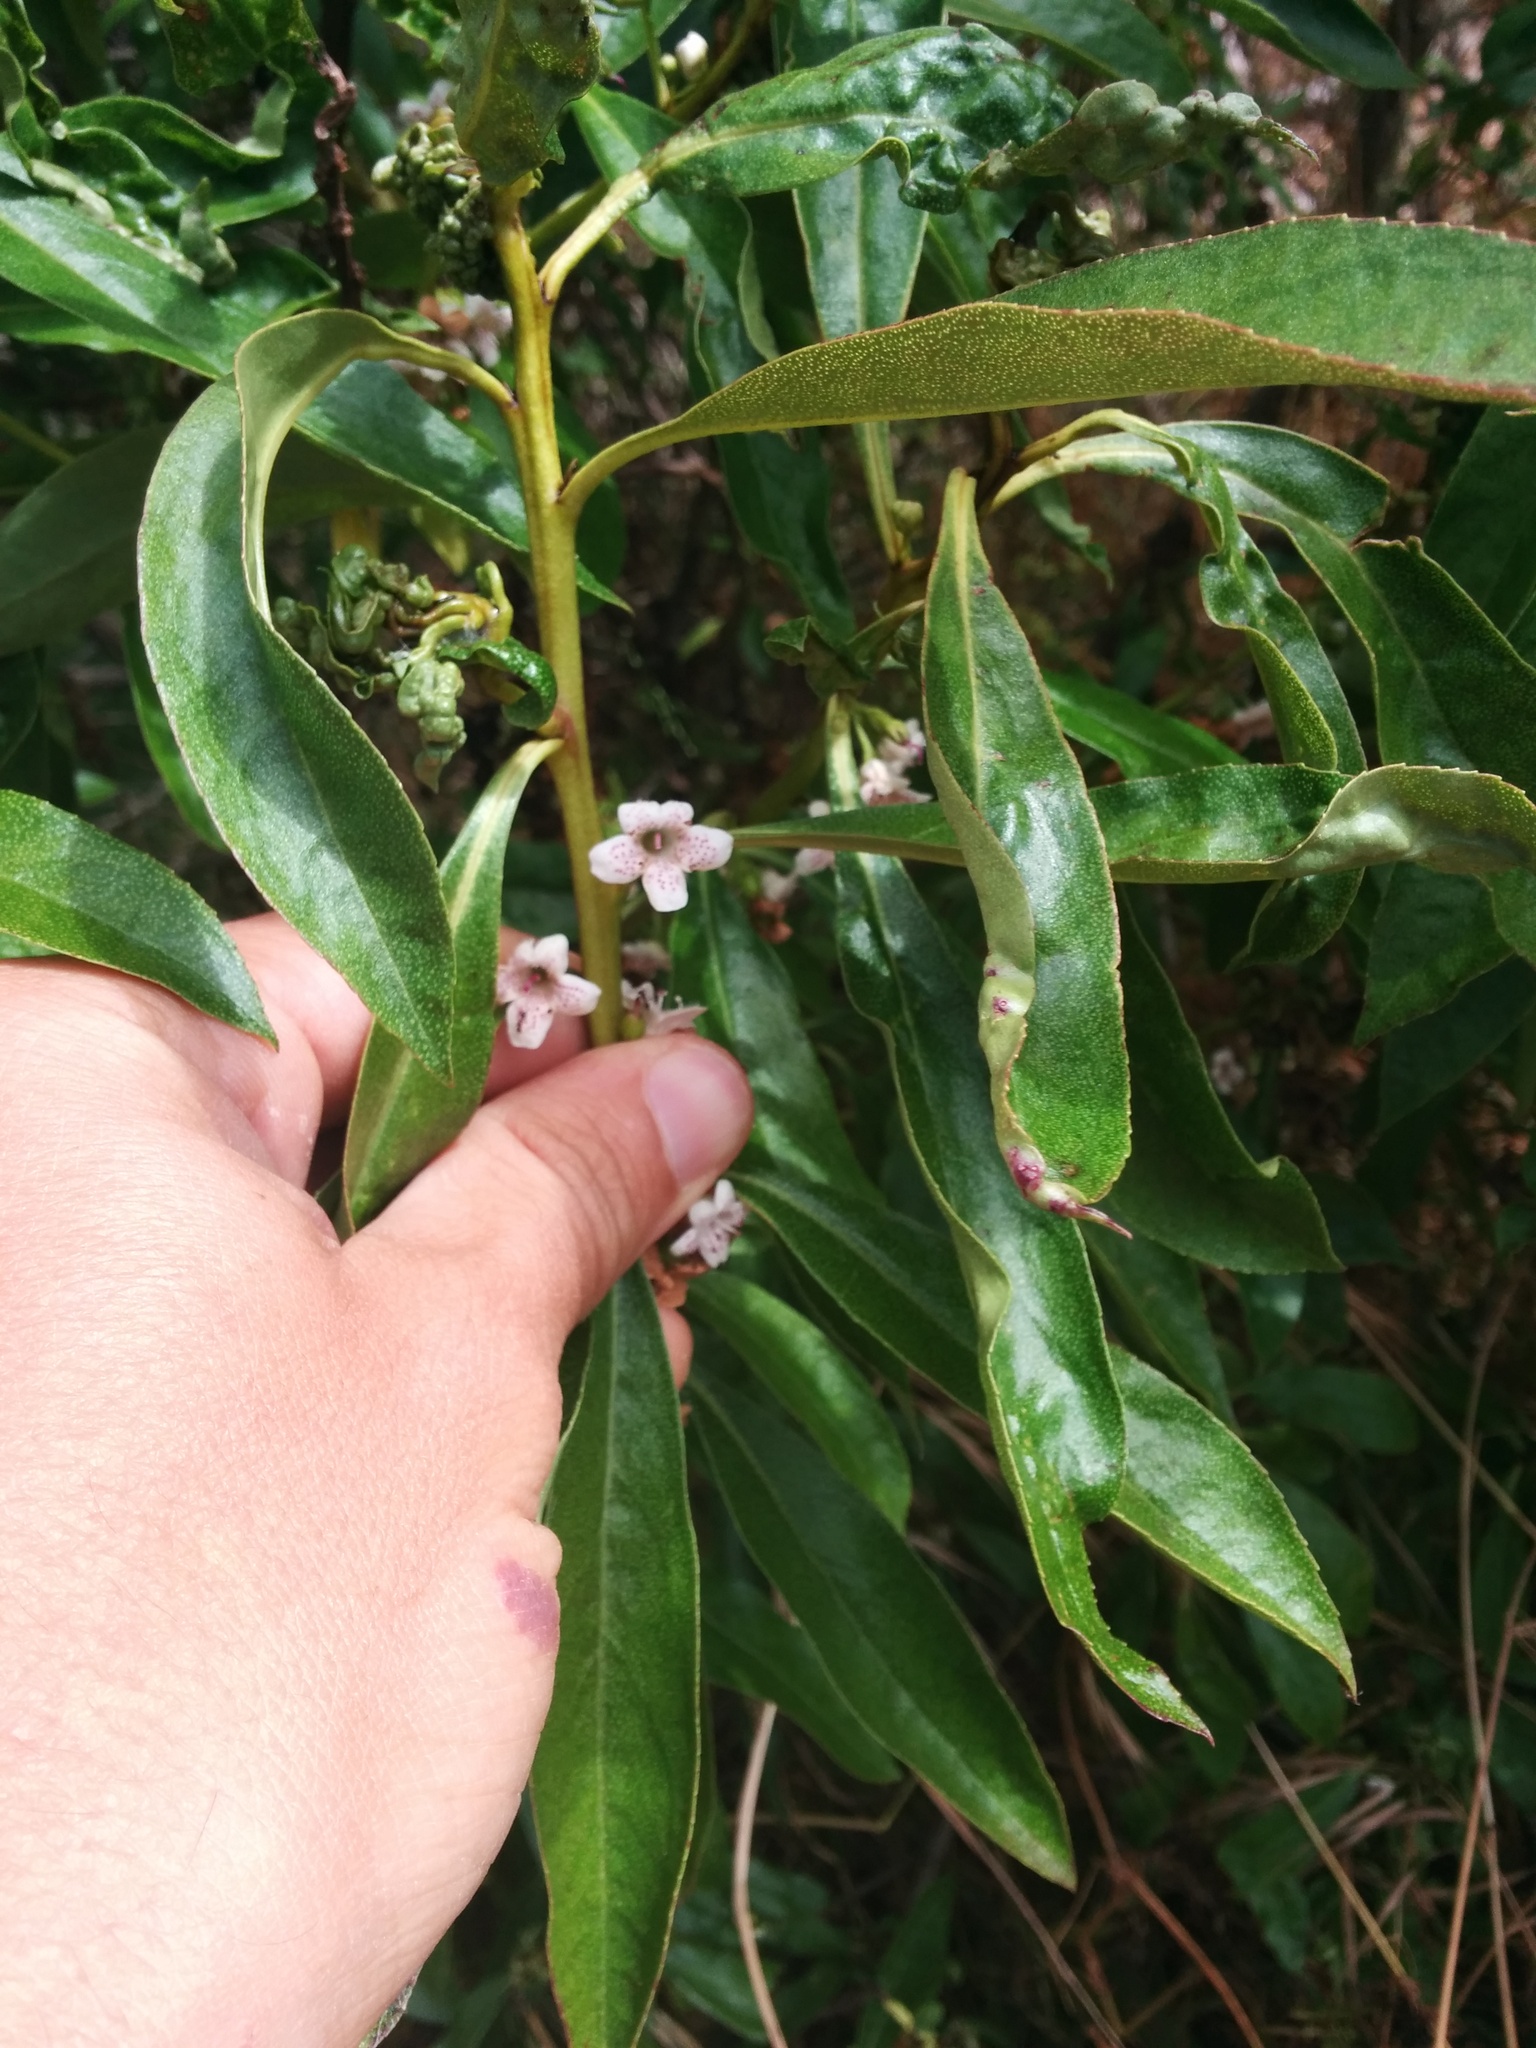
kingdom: Plantae
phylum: Tracheophyta
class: Magnoliopsida
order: Lamiales
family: Scrophulariaceae
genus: Myoporum
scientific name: Myoporum laetum
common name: Ngaio tree
